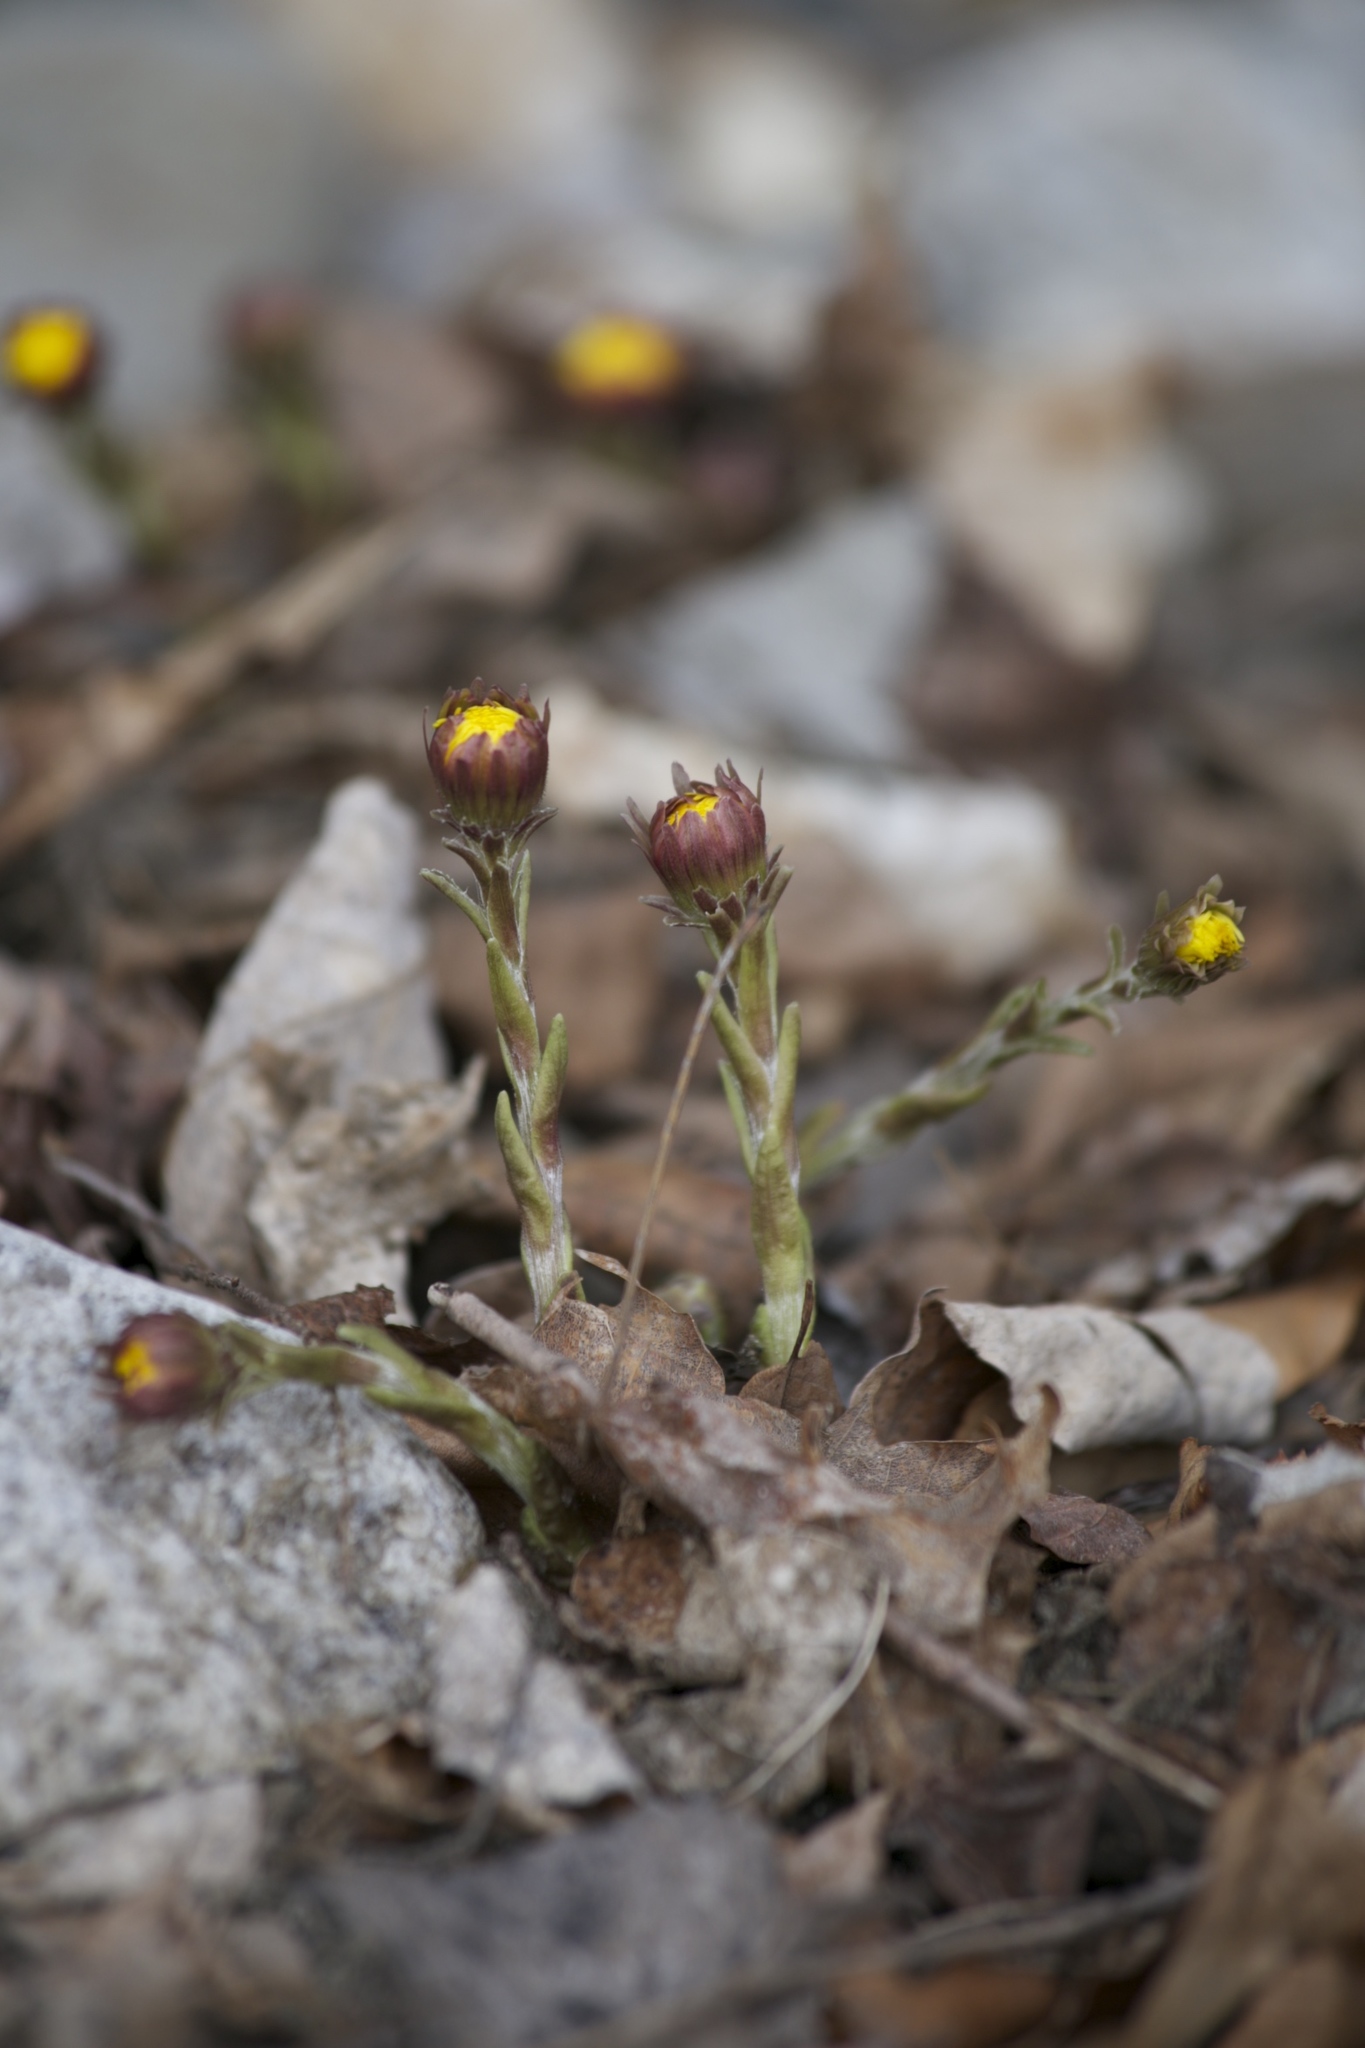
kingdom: Plantae
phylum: Tracheophyta
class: Magnoliopsida
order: Asterales
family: Asteraceae
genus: Tussilago
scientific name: Tussilago farfara
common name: Coltsfoot
